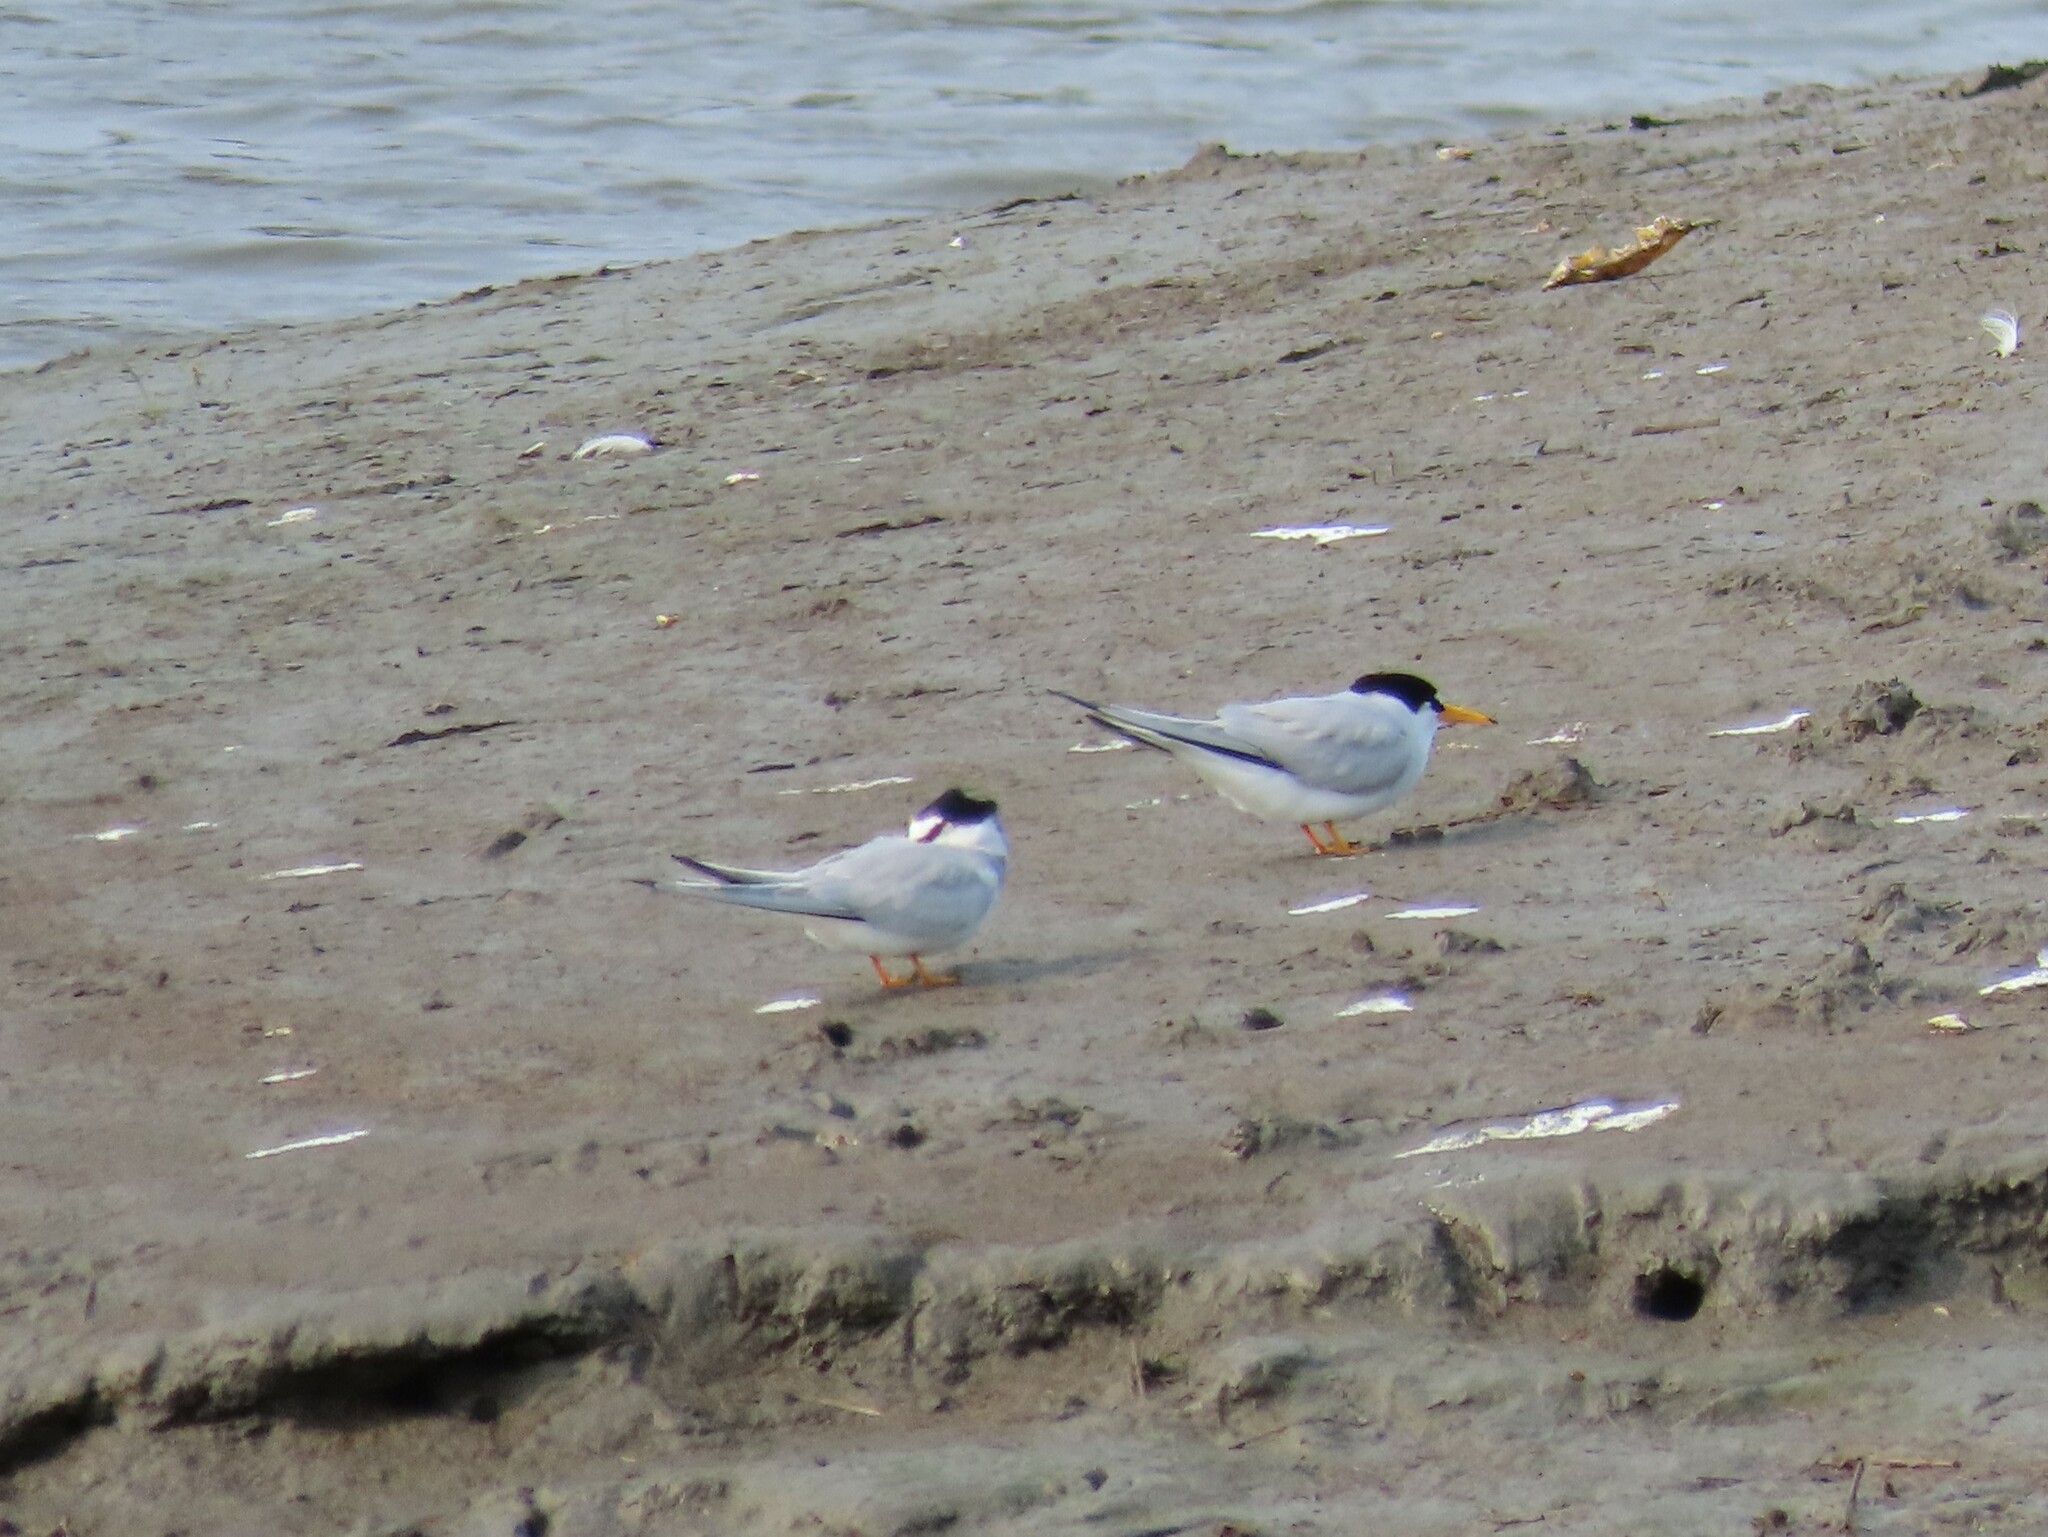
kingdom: Animalia
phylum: Chordata
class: Aves
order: Charadriiformes
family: Laridae
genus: Sternula
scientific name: Sternula antillarum
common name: Least tern
